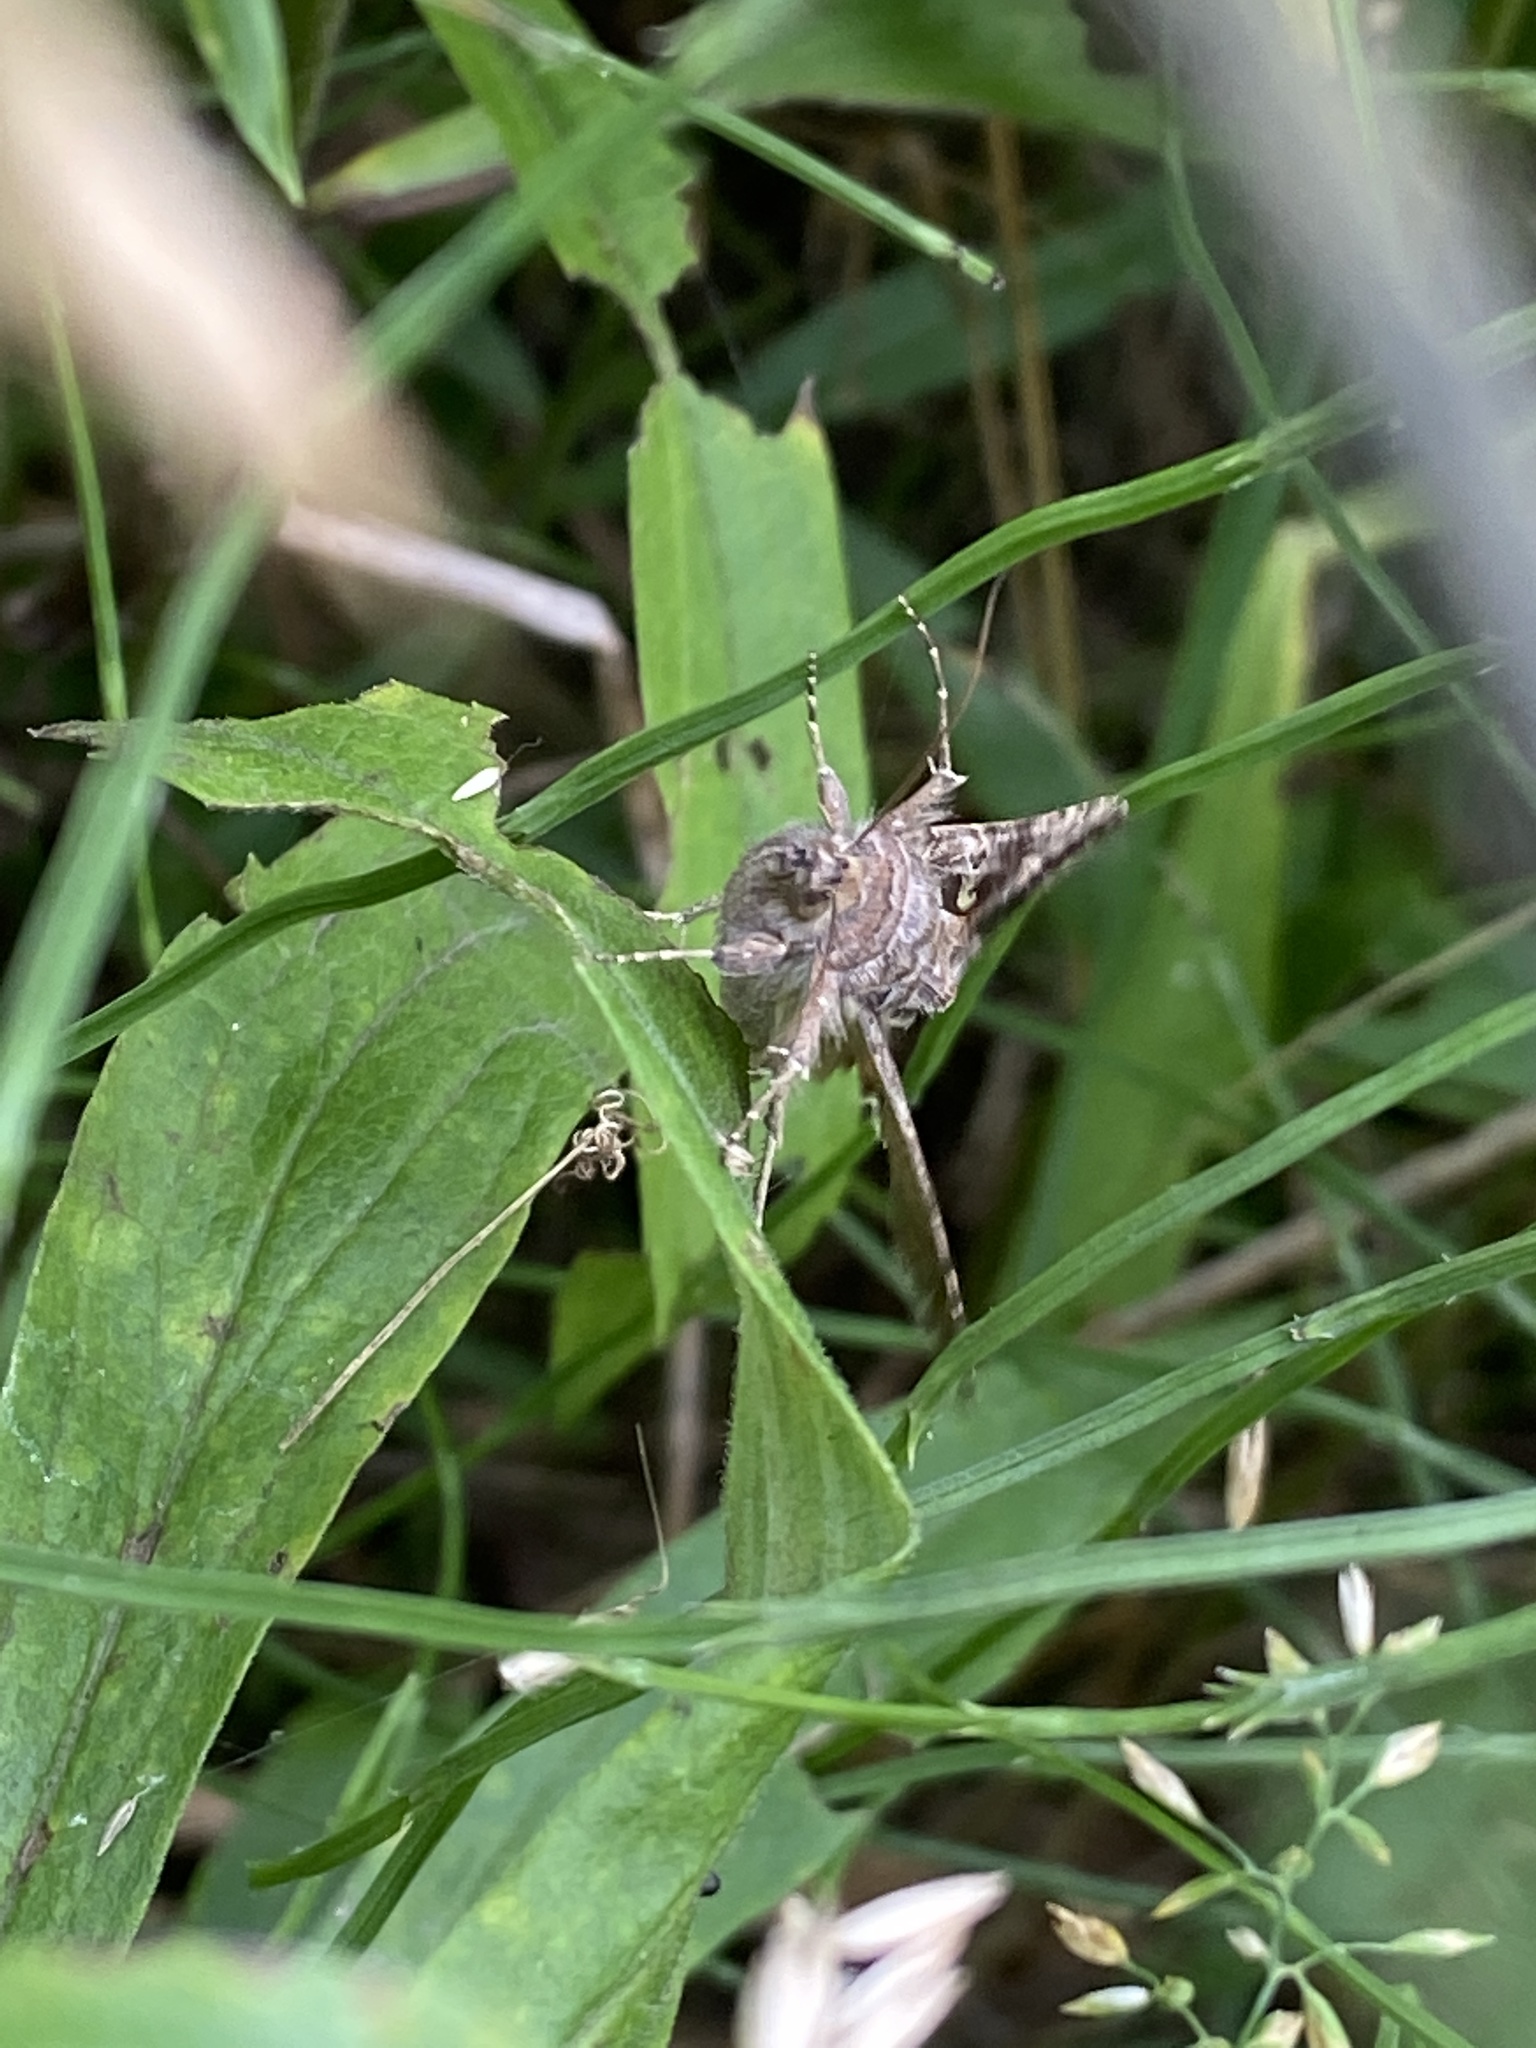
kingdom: Animalia
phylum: Arthropoda
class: Insecta
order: Lepidoptera
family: Noctuidae
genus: Autographa
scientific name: Autographa gamma
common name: Silver y
